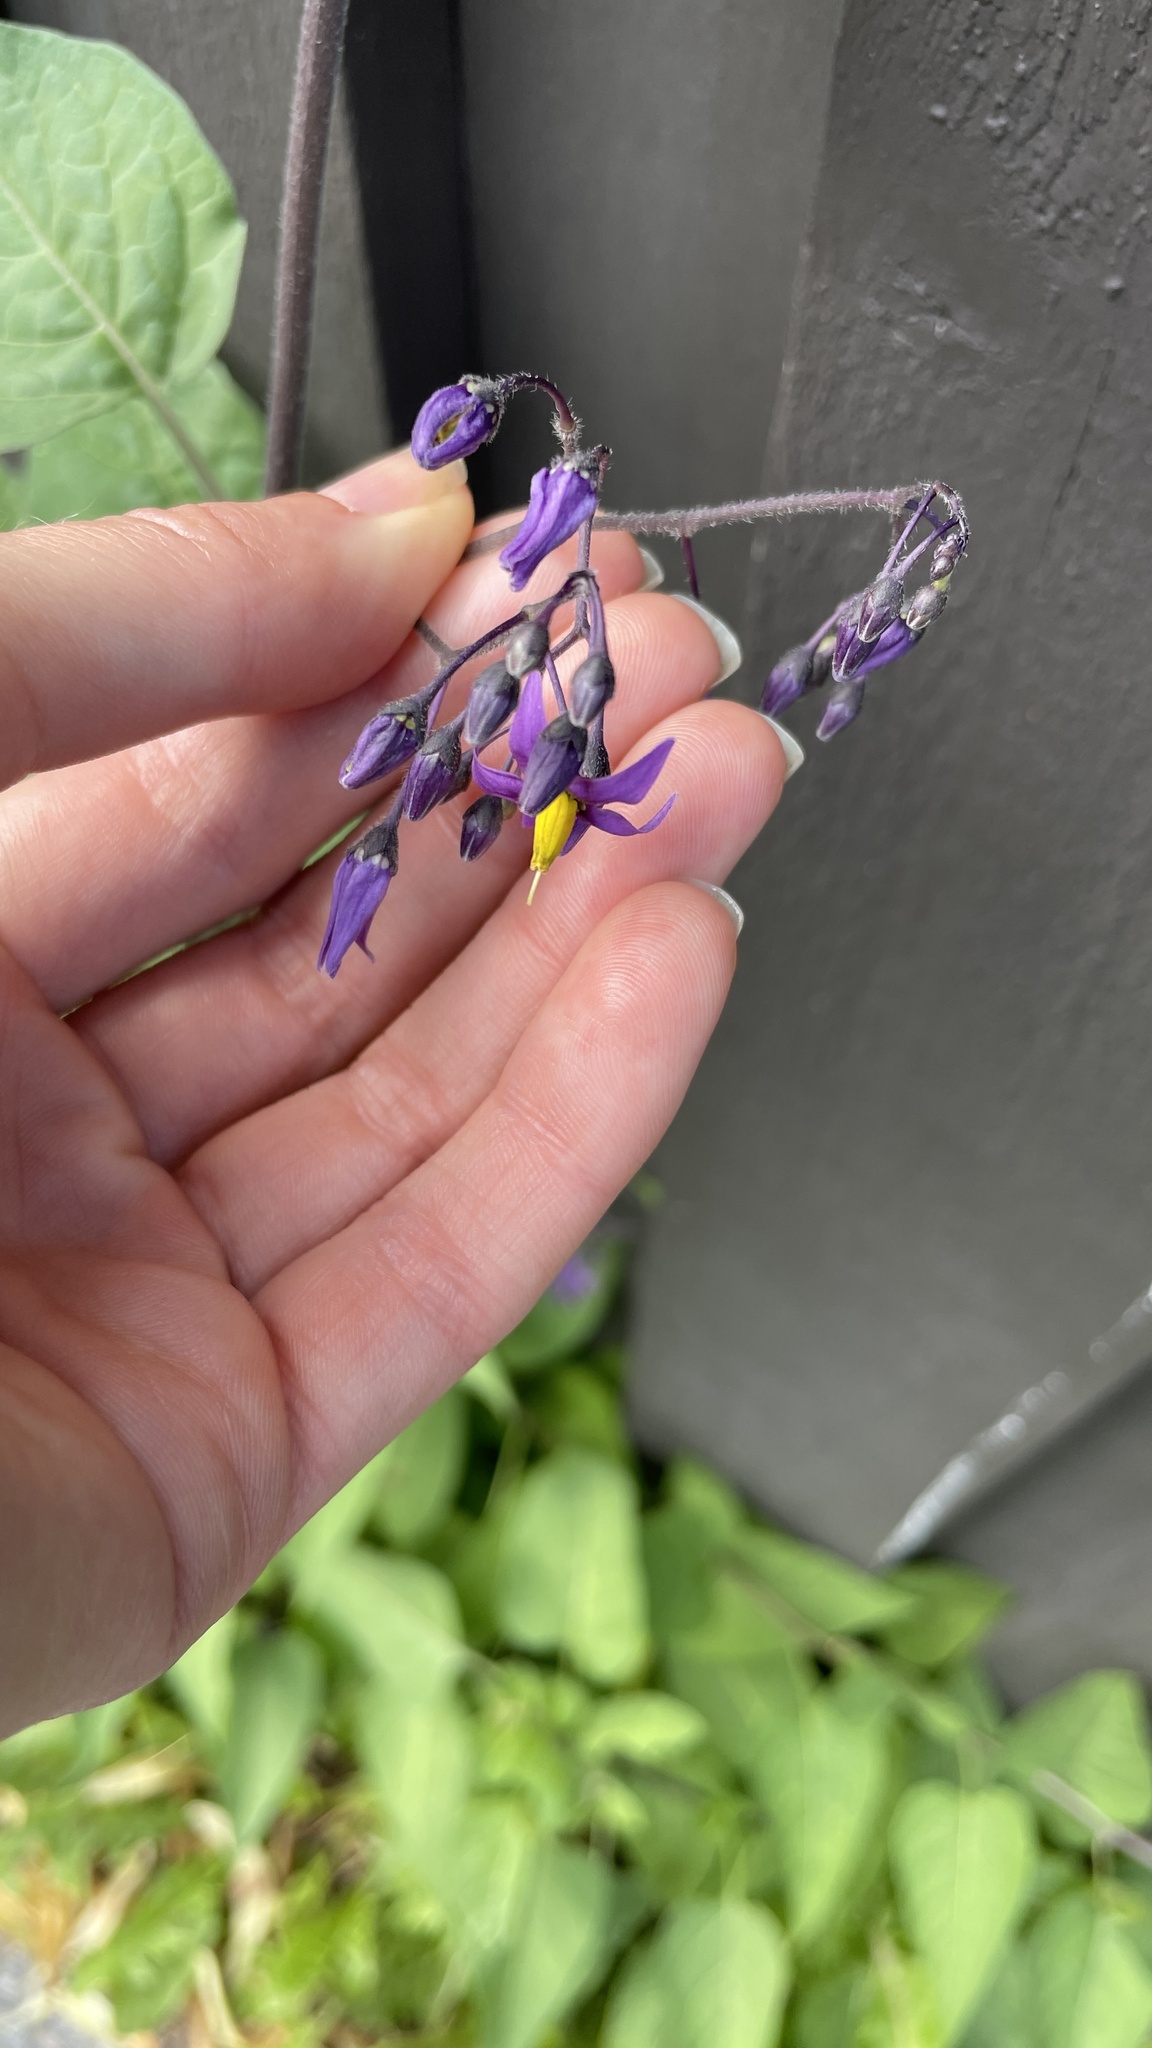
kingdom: Plantae
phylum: Tracheophyta
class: Magnoliopsida
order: Solanales
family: Solanaceae
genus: Solanum
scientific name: Solanum dulcamara
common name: Climbing nightshade
